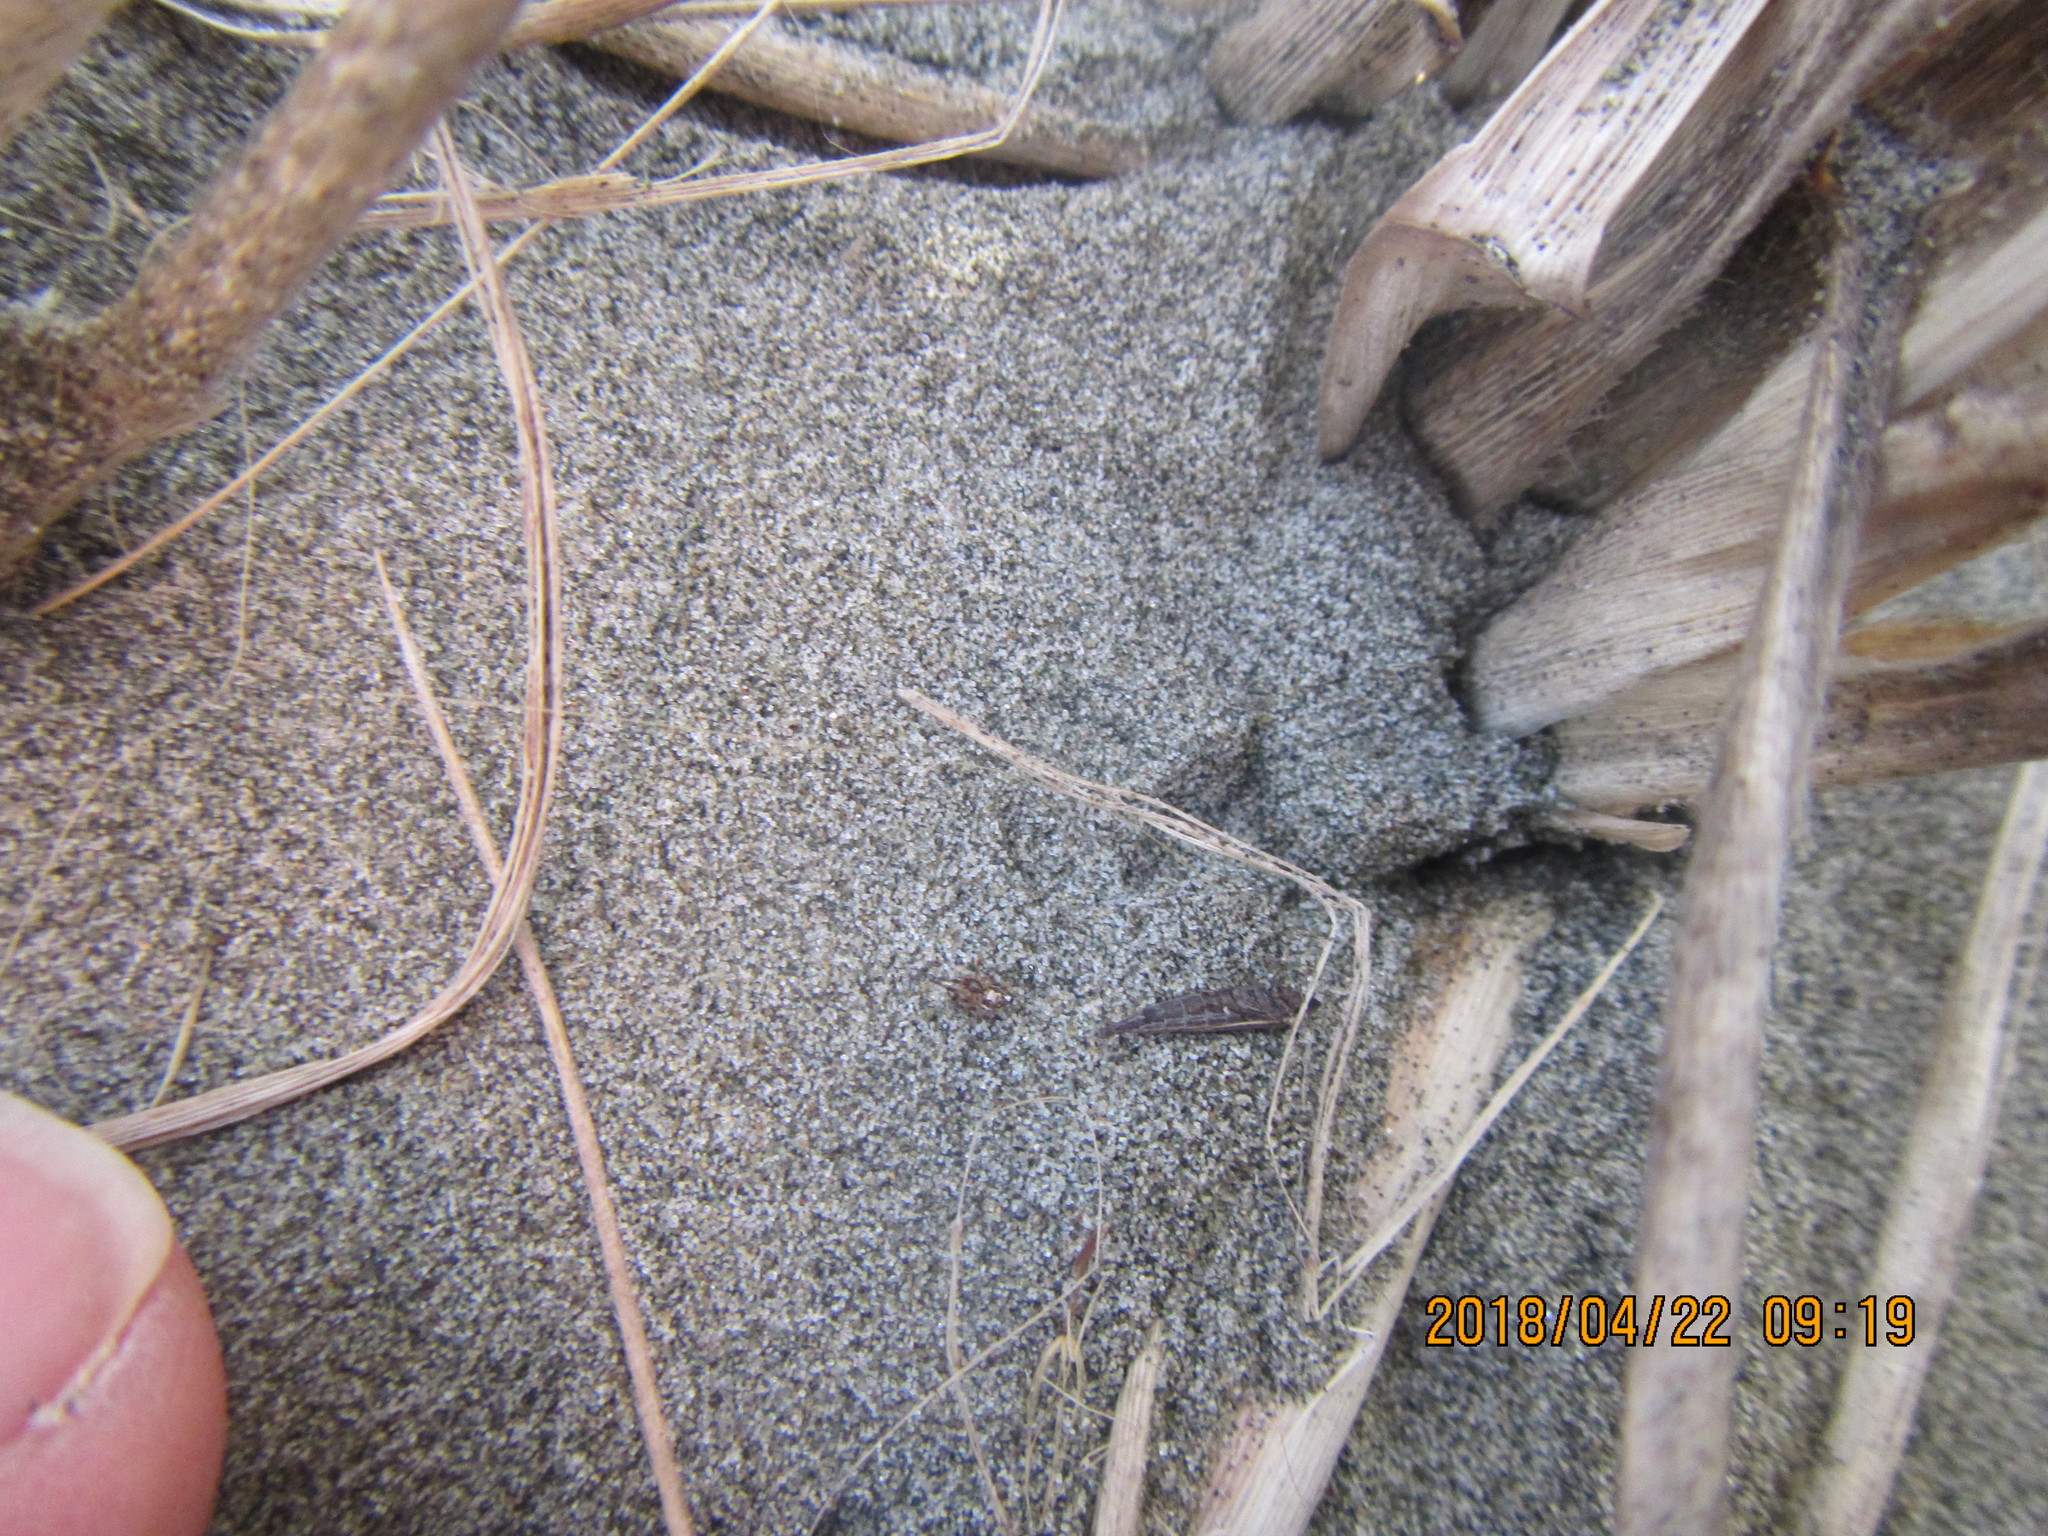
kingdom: Animalia
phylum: Arthropoda
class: Insecta
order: Hemiptera
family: Cicadellidae
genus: Euacanthella
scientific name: Euacanthella palustris
